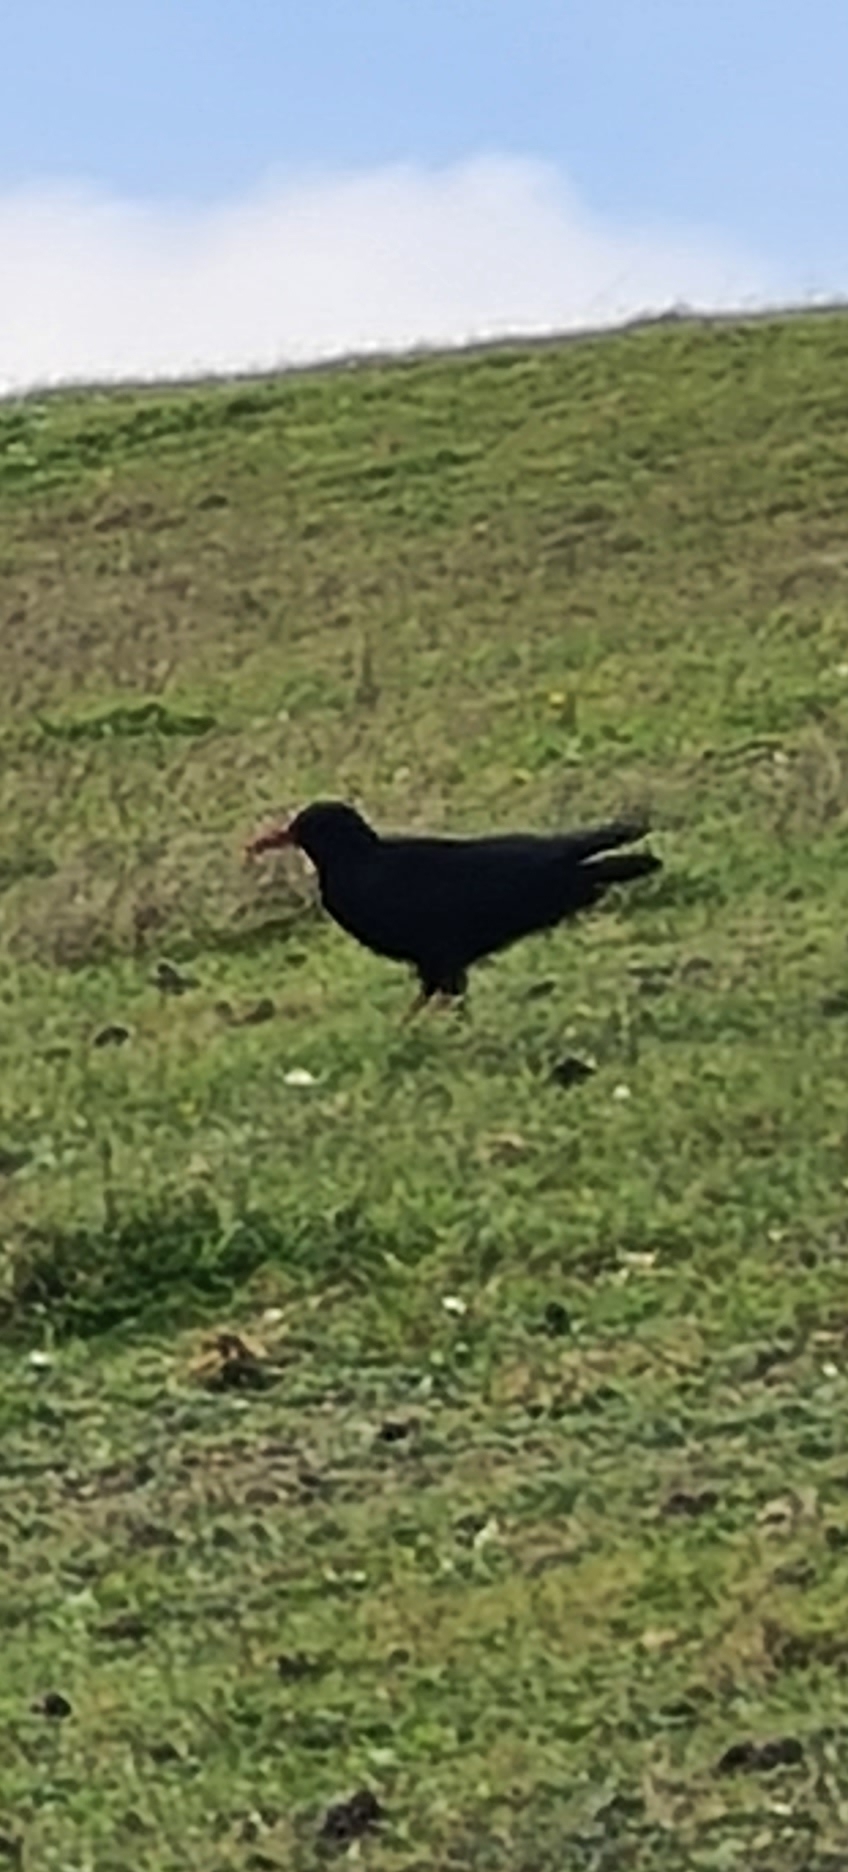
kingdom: Animalia
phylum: Chordata
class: Aves
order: Passeriformes
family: Corvidae
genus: Pyrrhocorax
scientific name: Pyrrhocorax pyrrhocorax
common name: Red-billed chough
